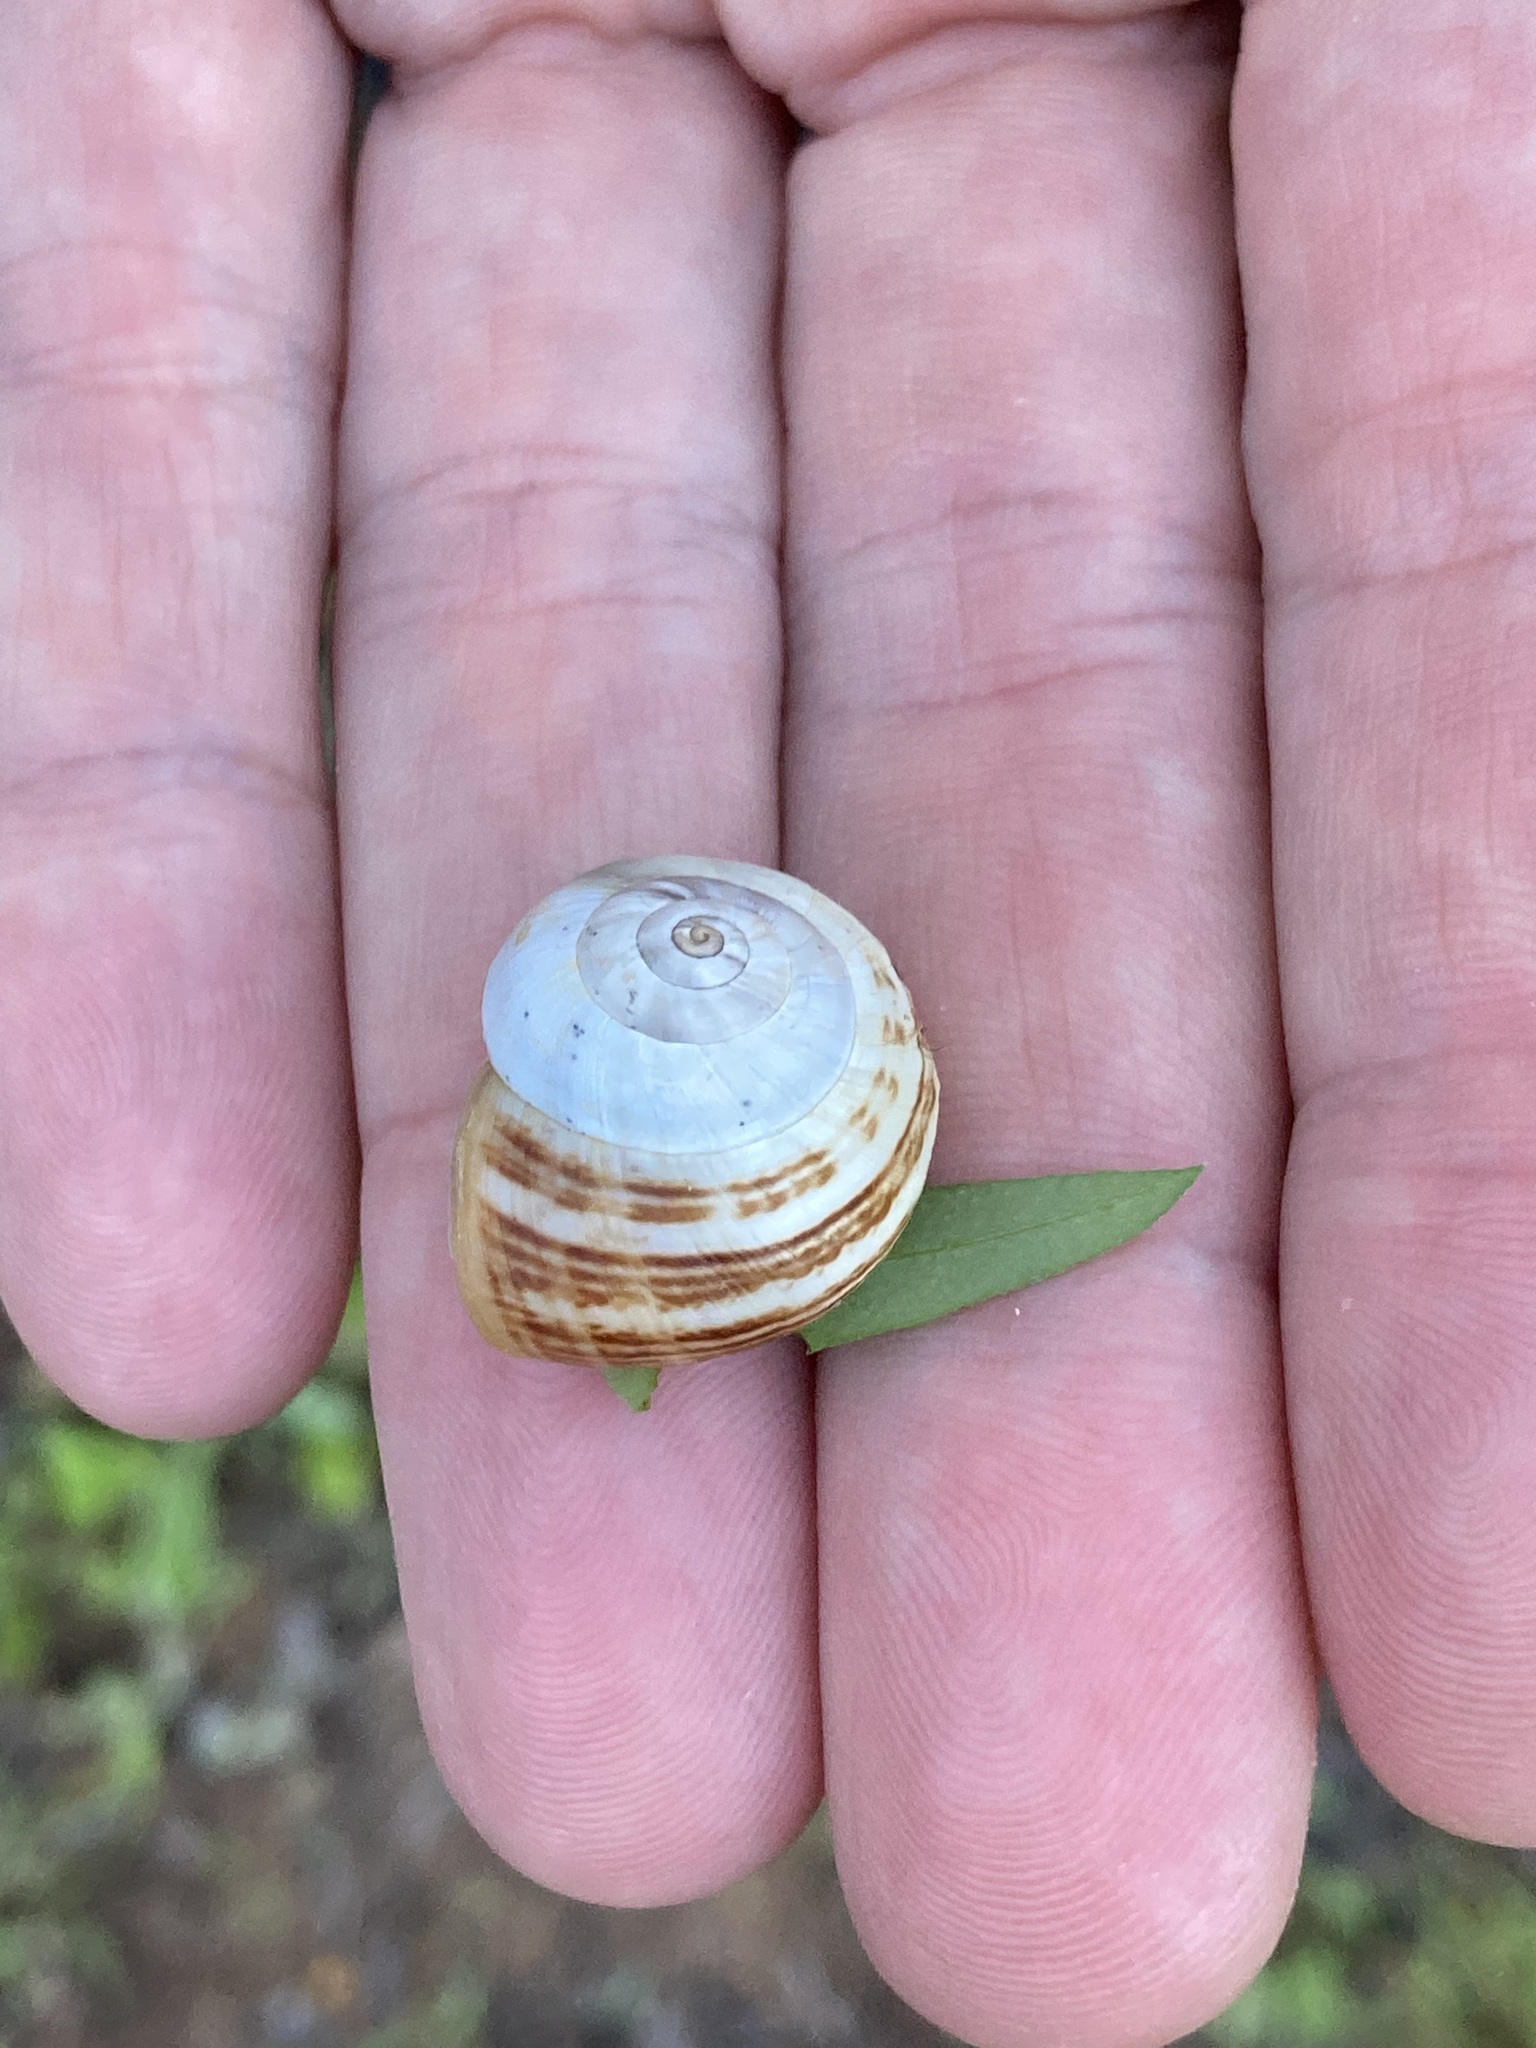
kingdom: Animalia
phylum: Mollusca
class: Gastropoda
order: Stylommatophora
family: Helicidae
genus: Theba
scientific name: Theba pisana
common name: White snail
